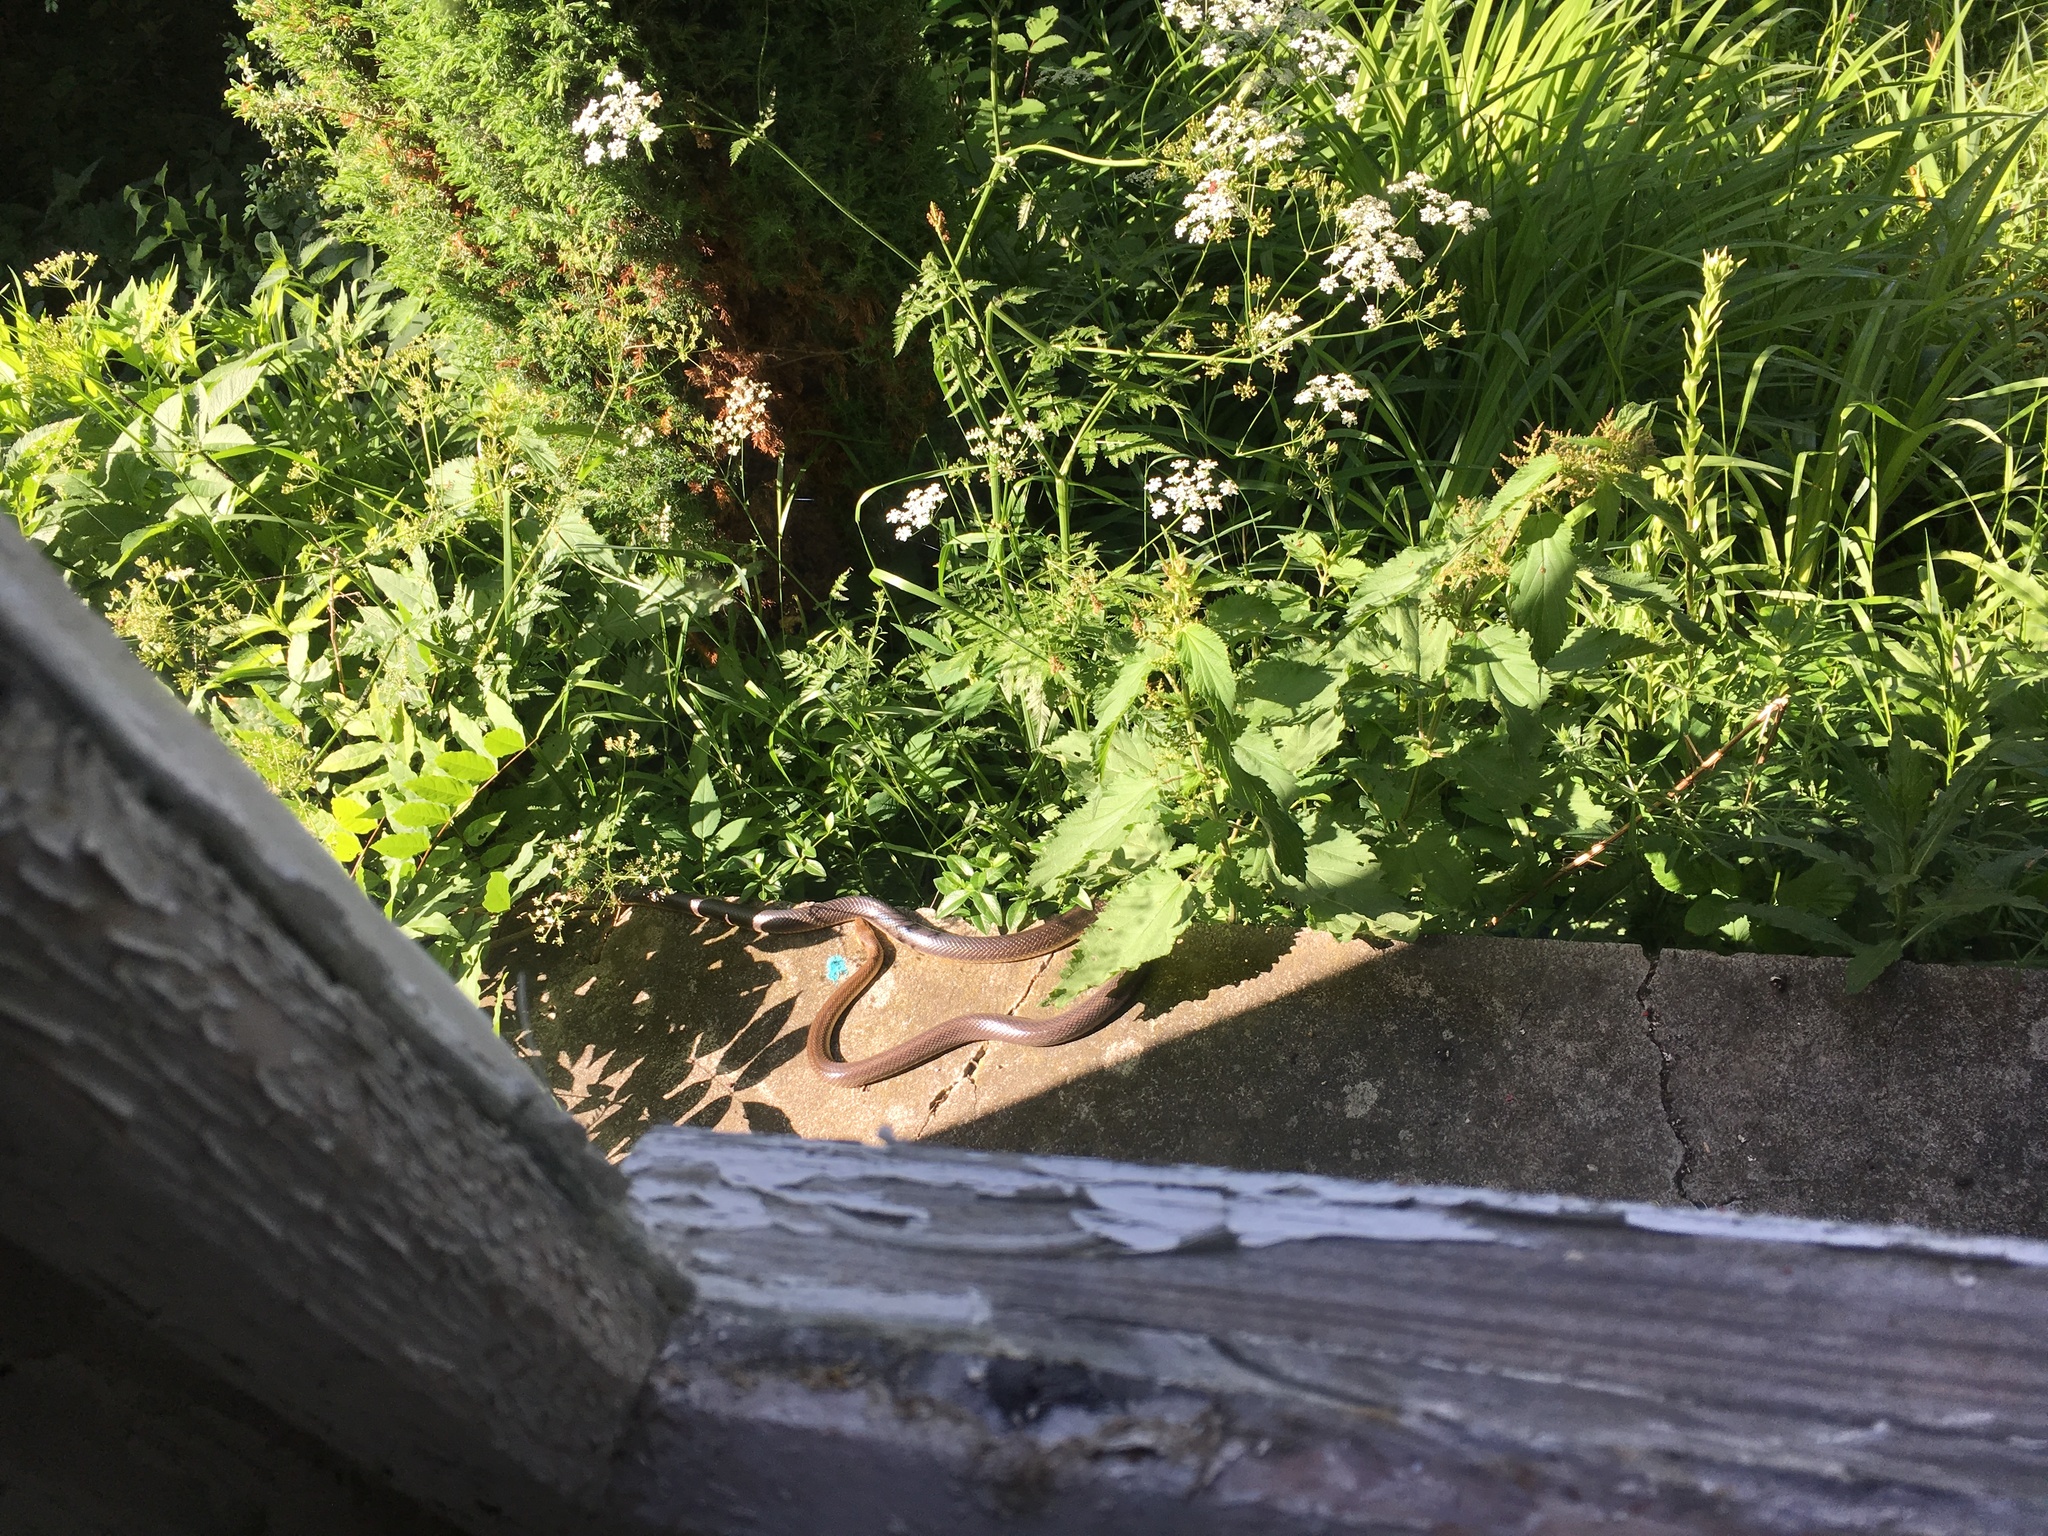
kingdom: Animalia
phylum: Chordata
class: Squamata
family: Colubridae
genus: Zamenis
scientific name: Zamenis longissimus
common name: Aesculapean snake
